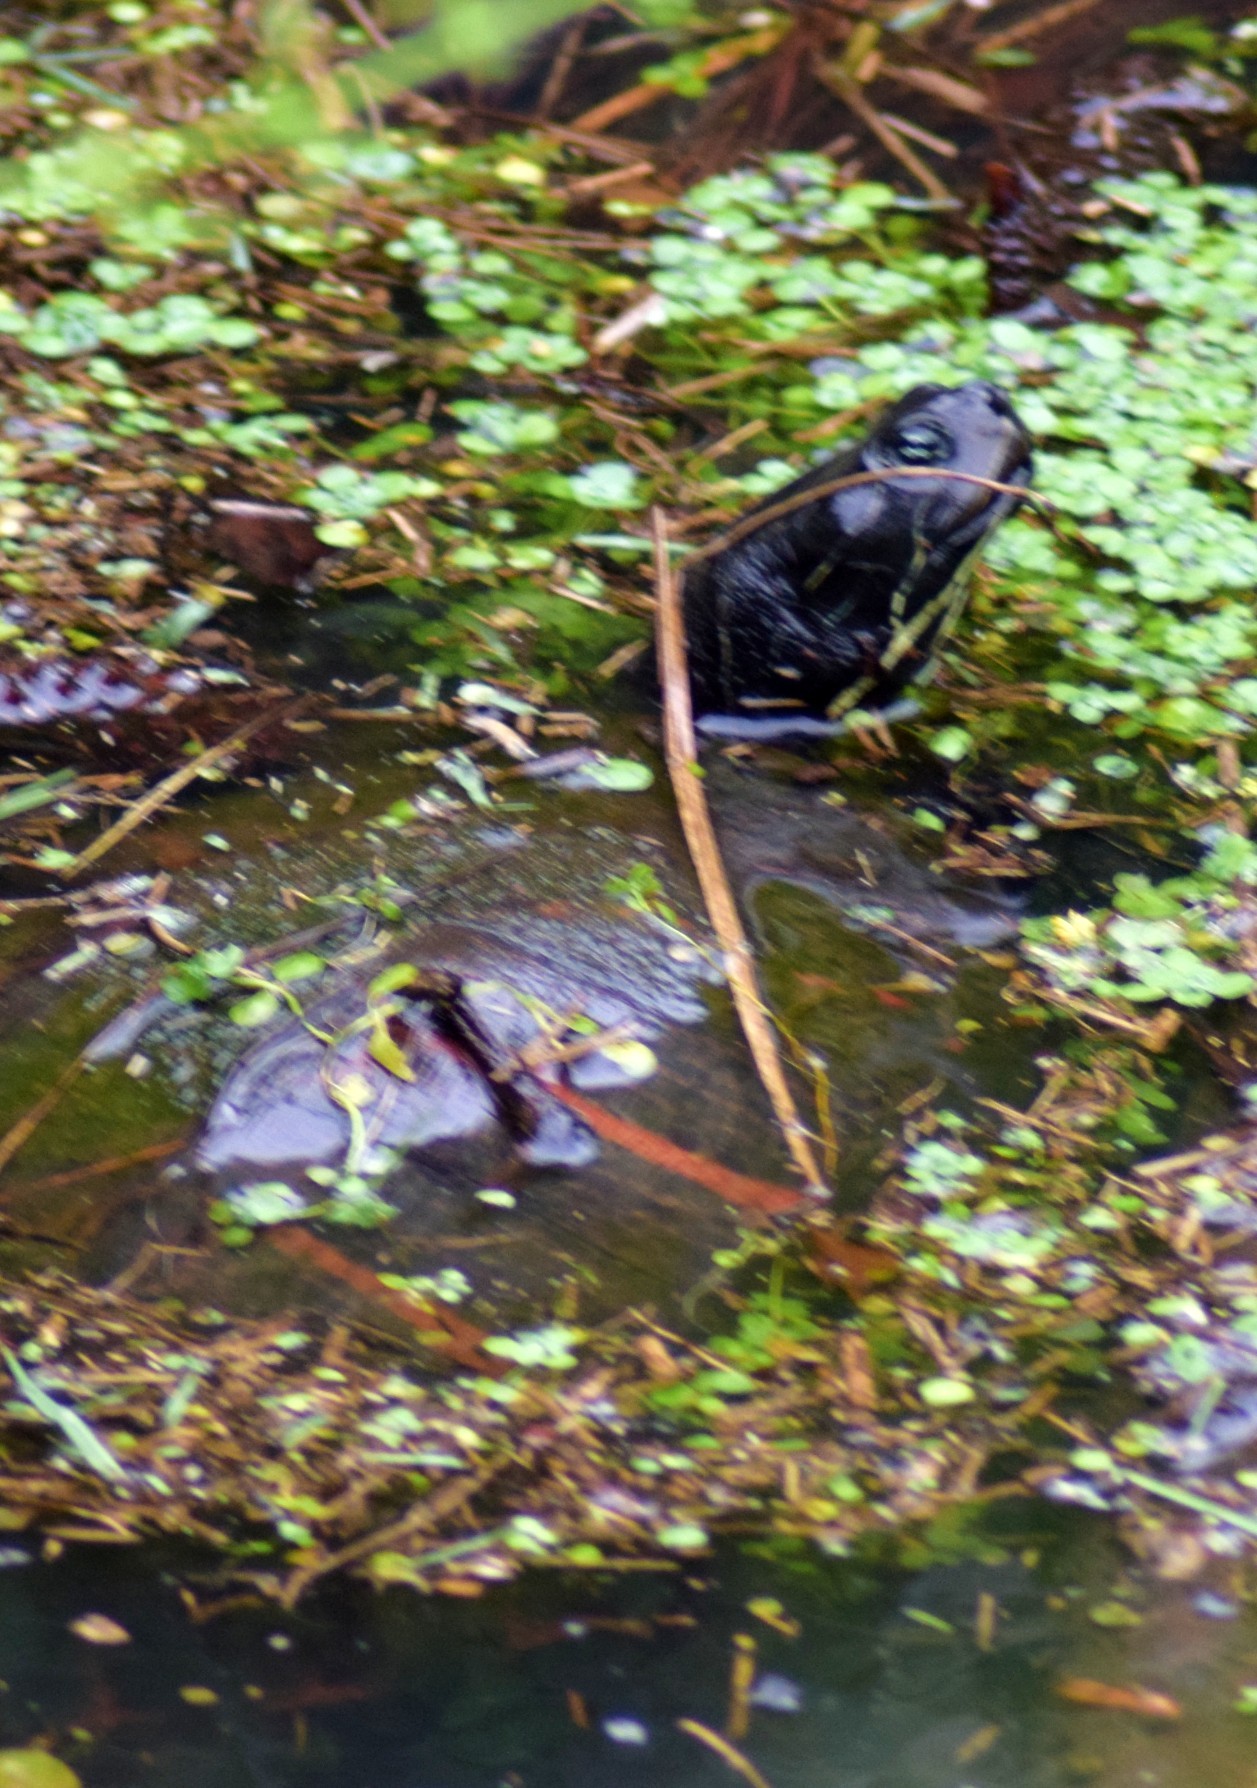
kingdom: Animalia
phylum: Chordata
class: Testudines
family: Emydidae
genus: Pseudemys
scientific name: Pseudemys rubriventris
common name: American red-bellied turtle
